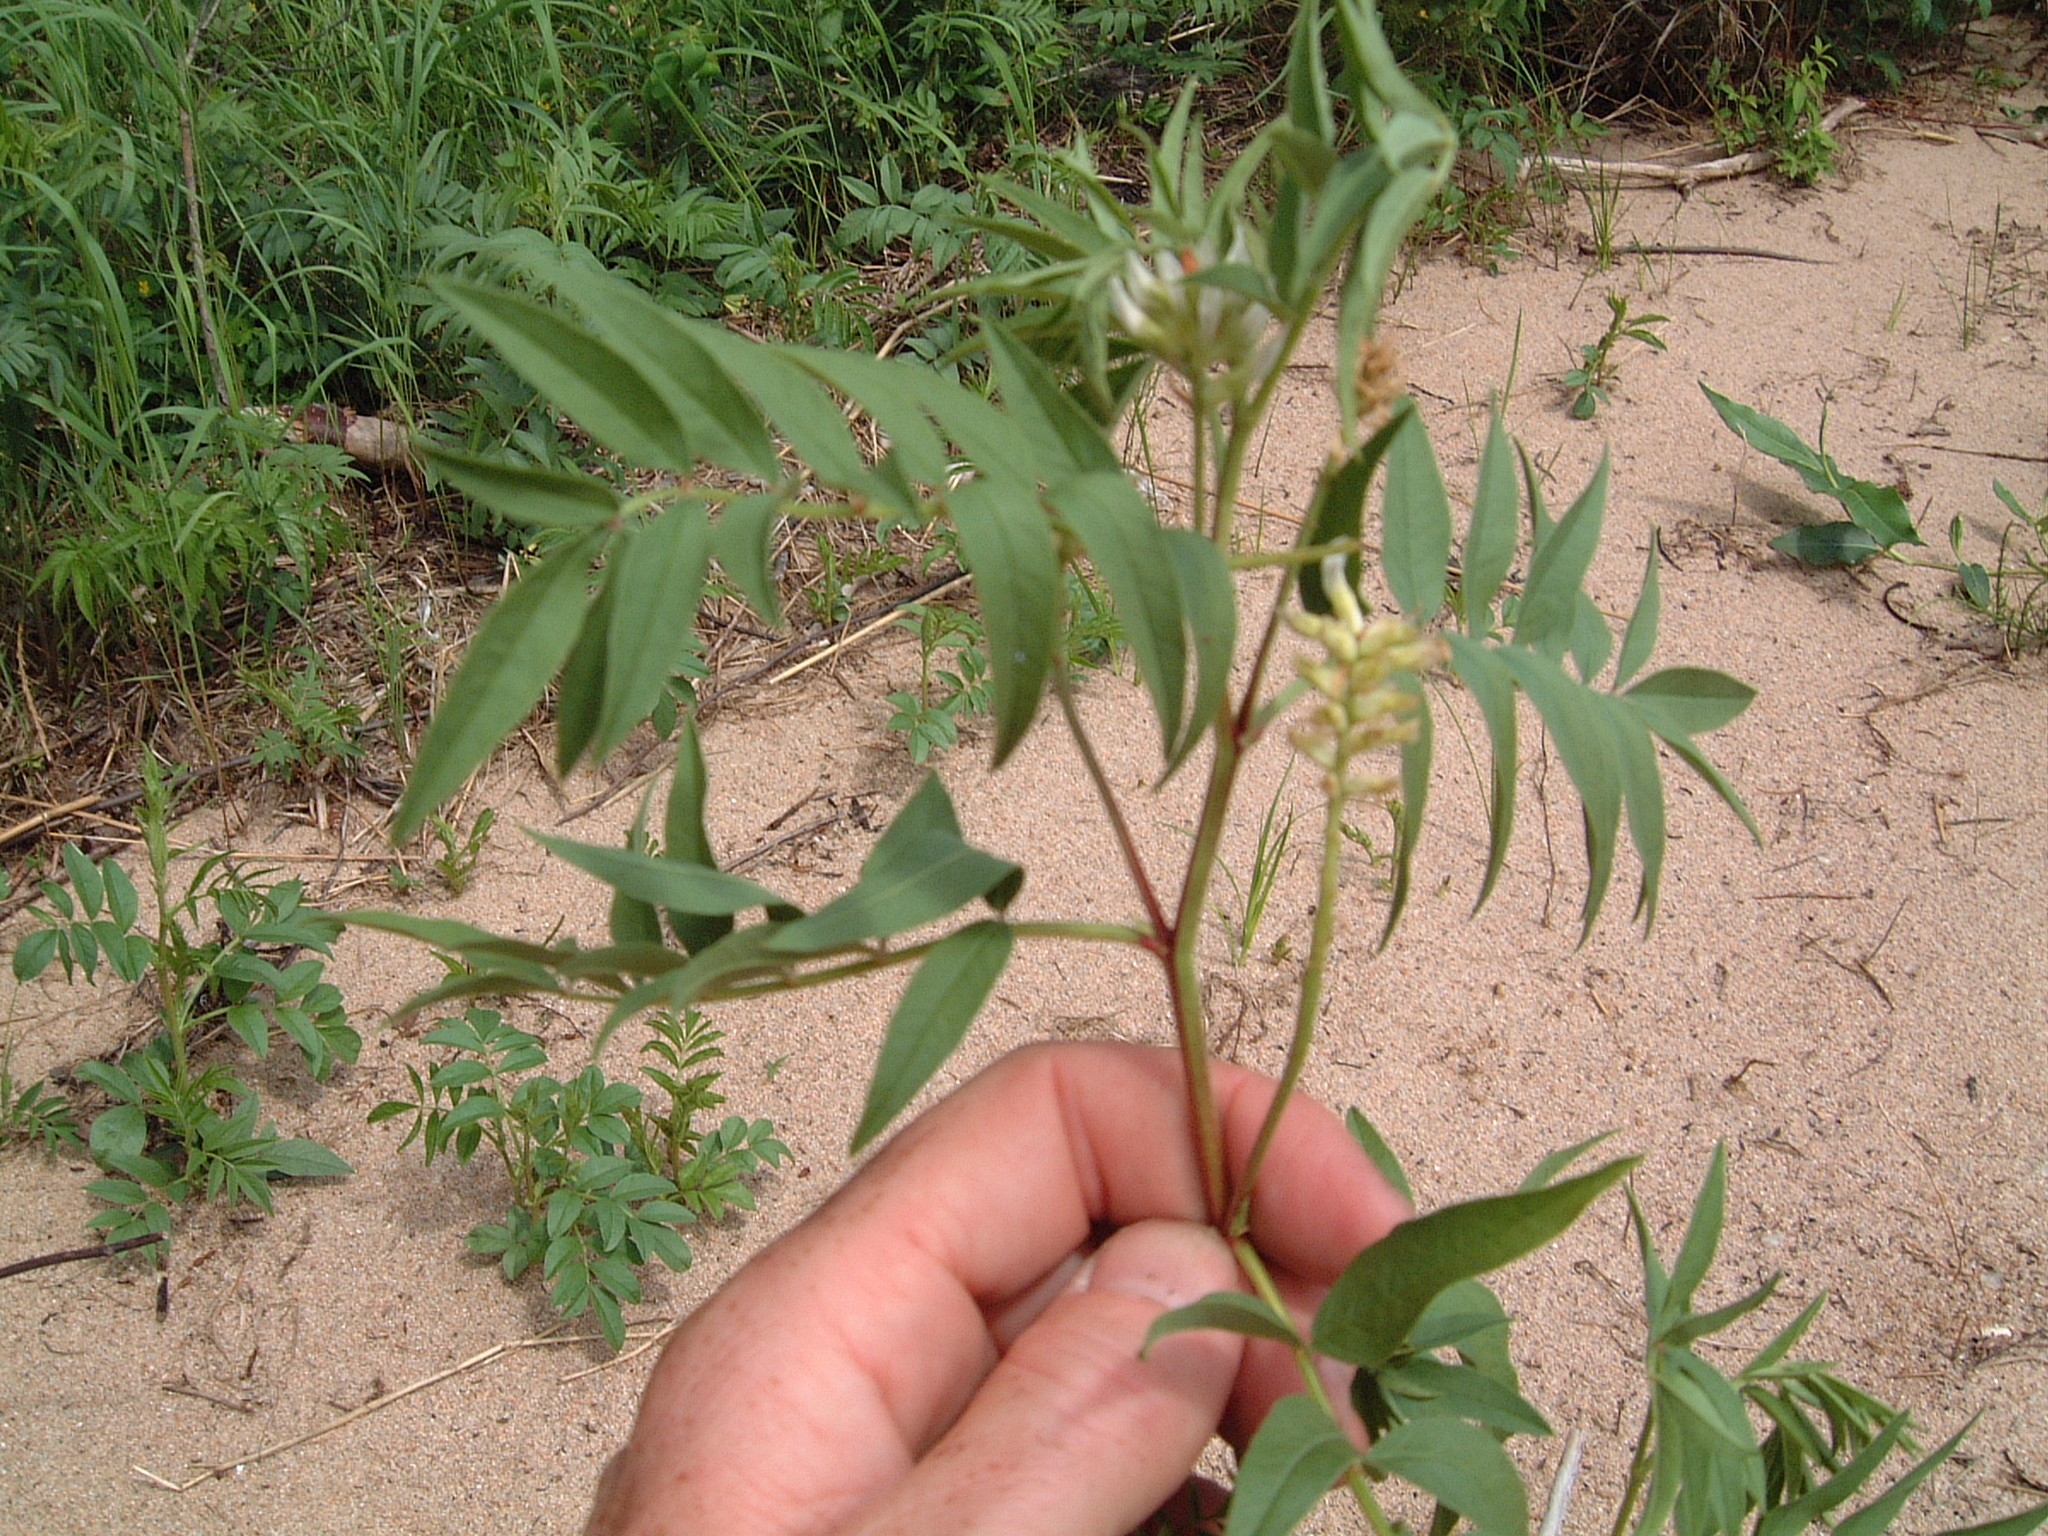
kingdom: Plantae
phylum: Tracheophyta
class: Magnoliopsida
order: Fabales
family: Fabaceae
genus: Glycyrrhiza
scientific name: Glycyrrhiza lepidota
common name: American liquorice
